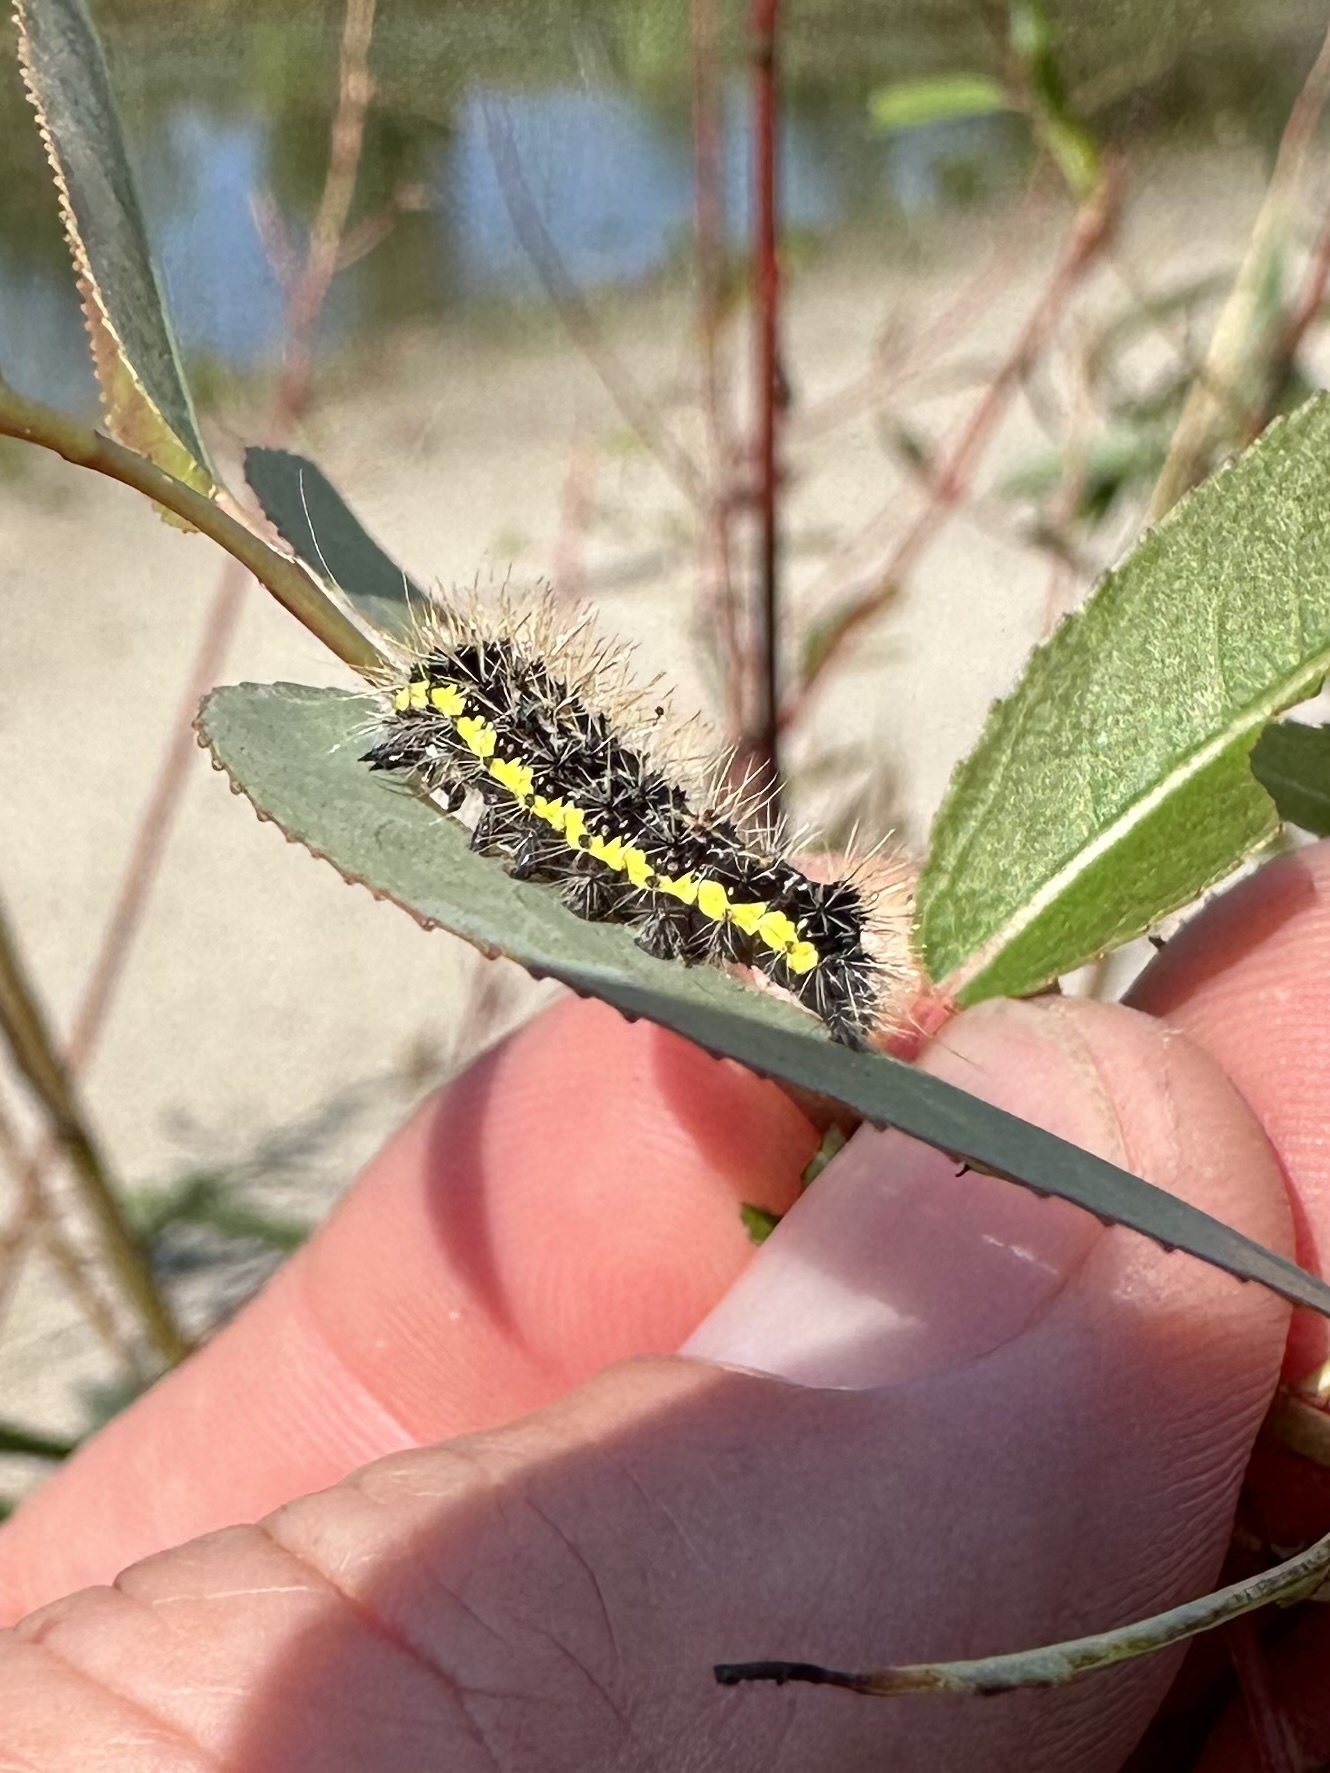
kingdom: Animalia
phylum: Arthropoda
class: Insecta
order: Lepidoptera
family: Noctuidae
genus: Acronicta
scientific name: Acronicta oblinita
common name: Smeared dagger
